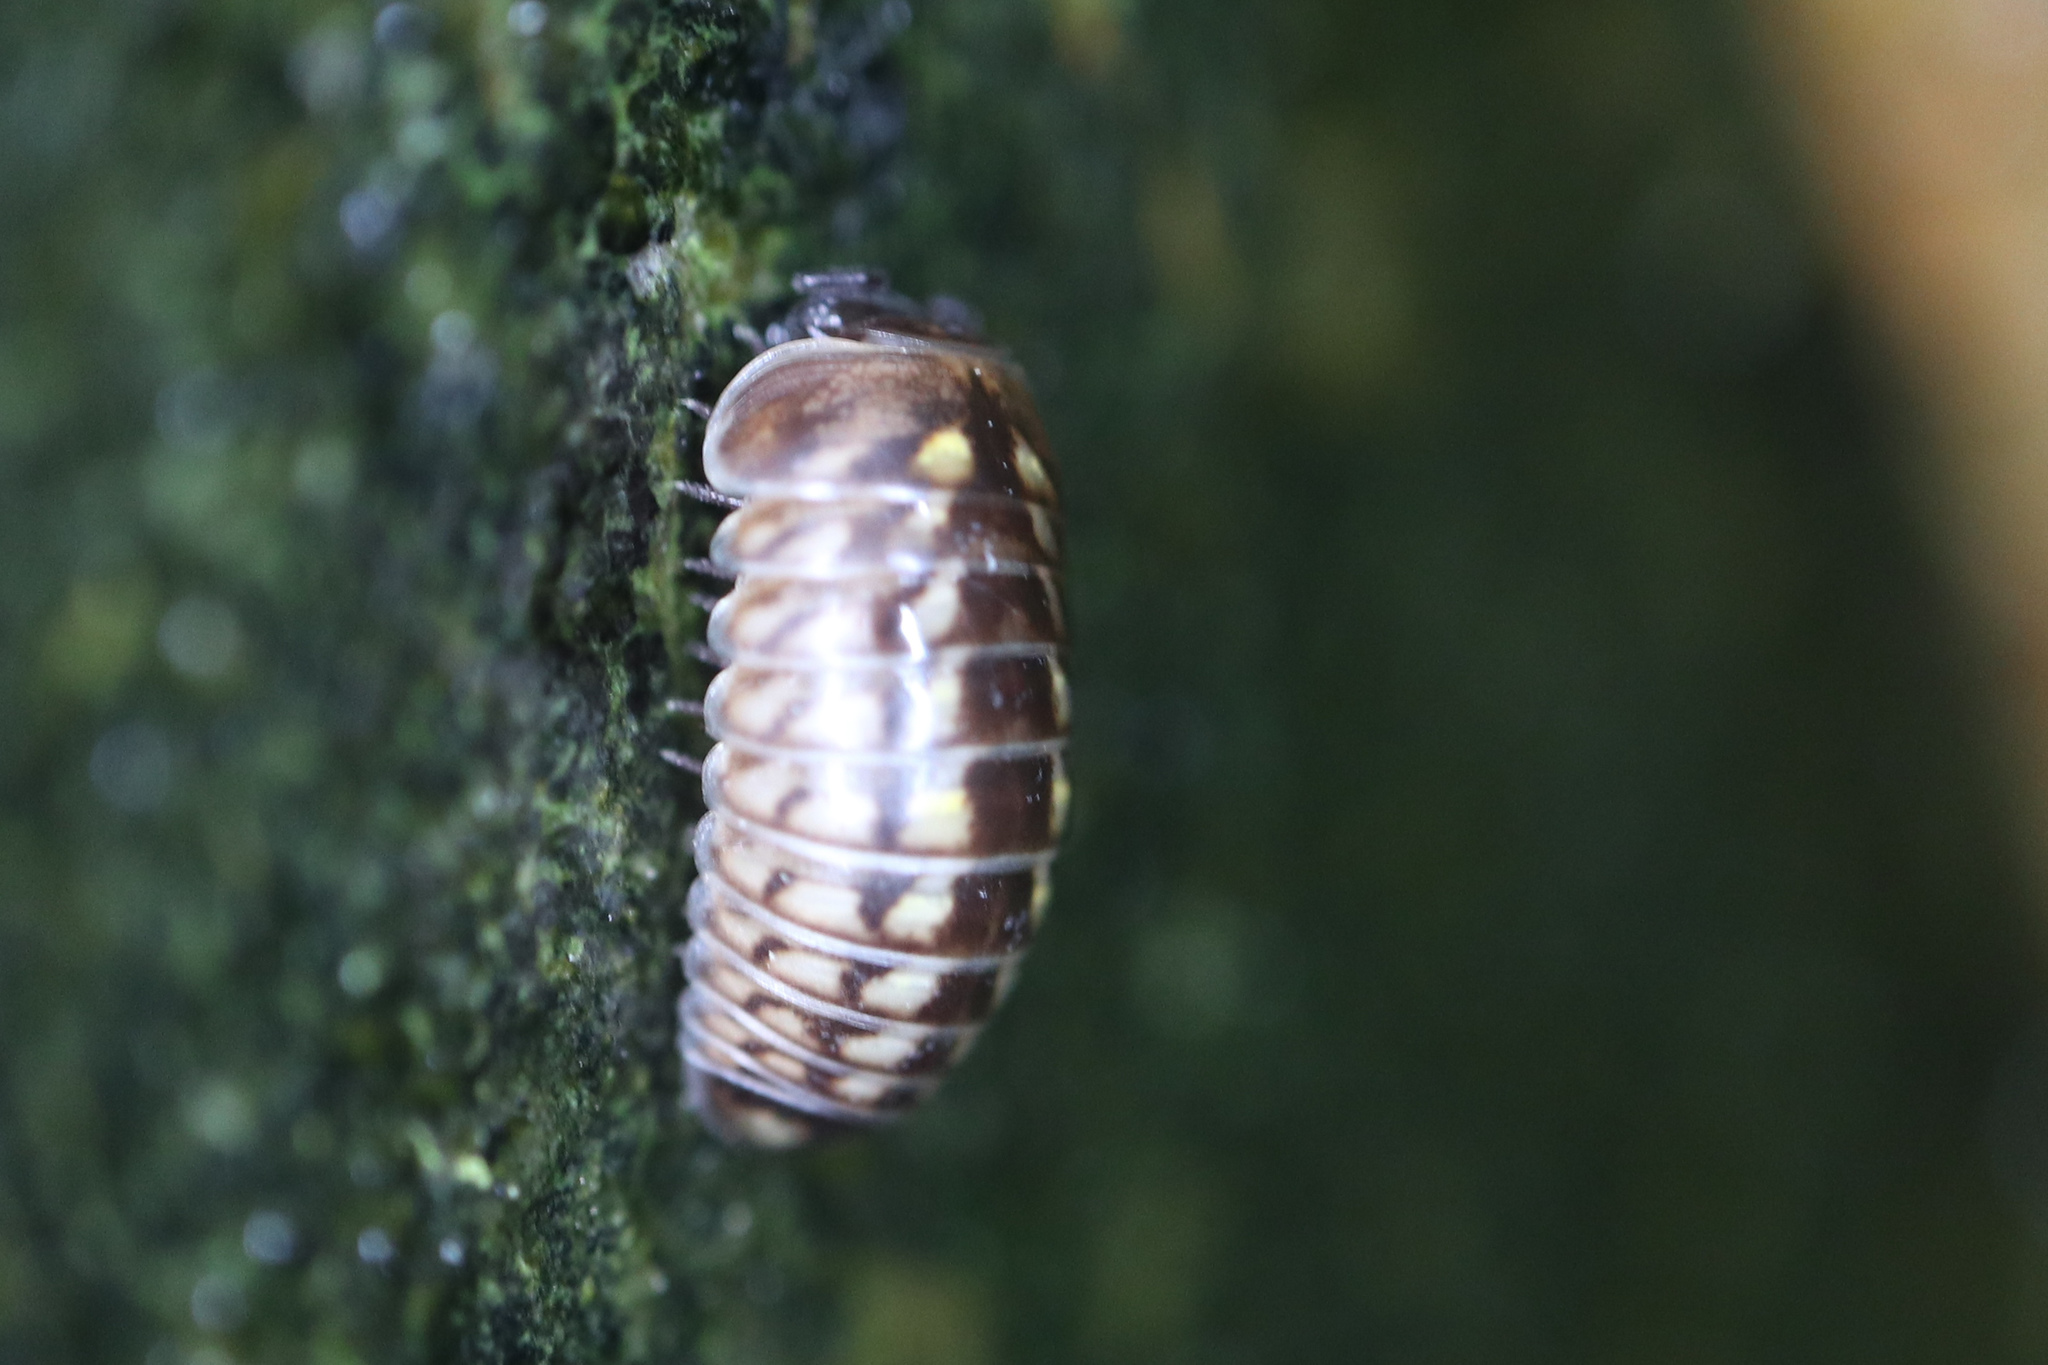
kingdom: Animalia
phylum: Arthropoda
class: Diplopoda
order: Glomerida
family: Glomeridae
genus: Glomeris
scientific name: Glomeris intermedia
